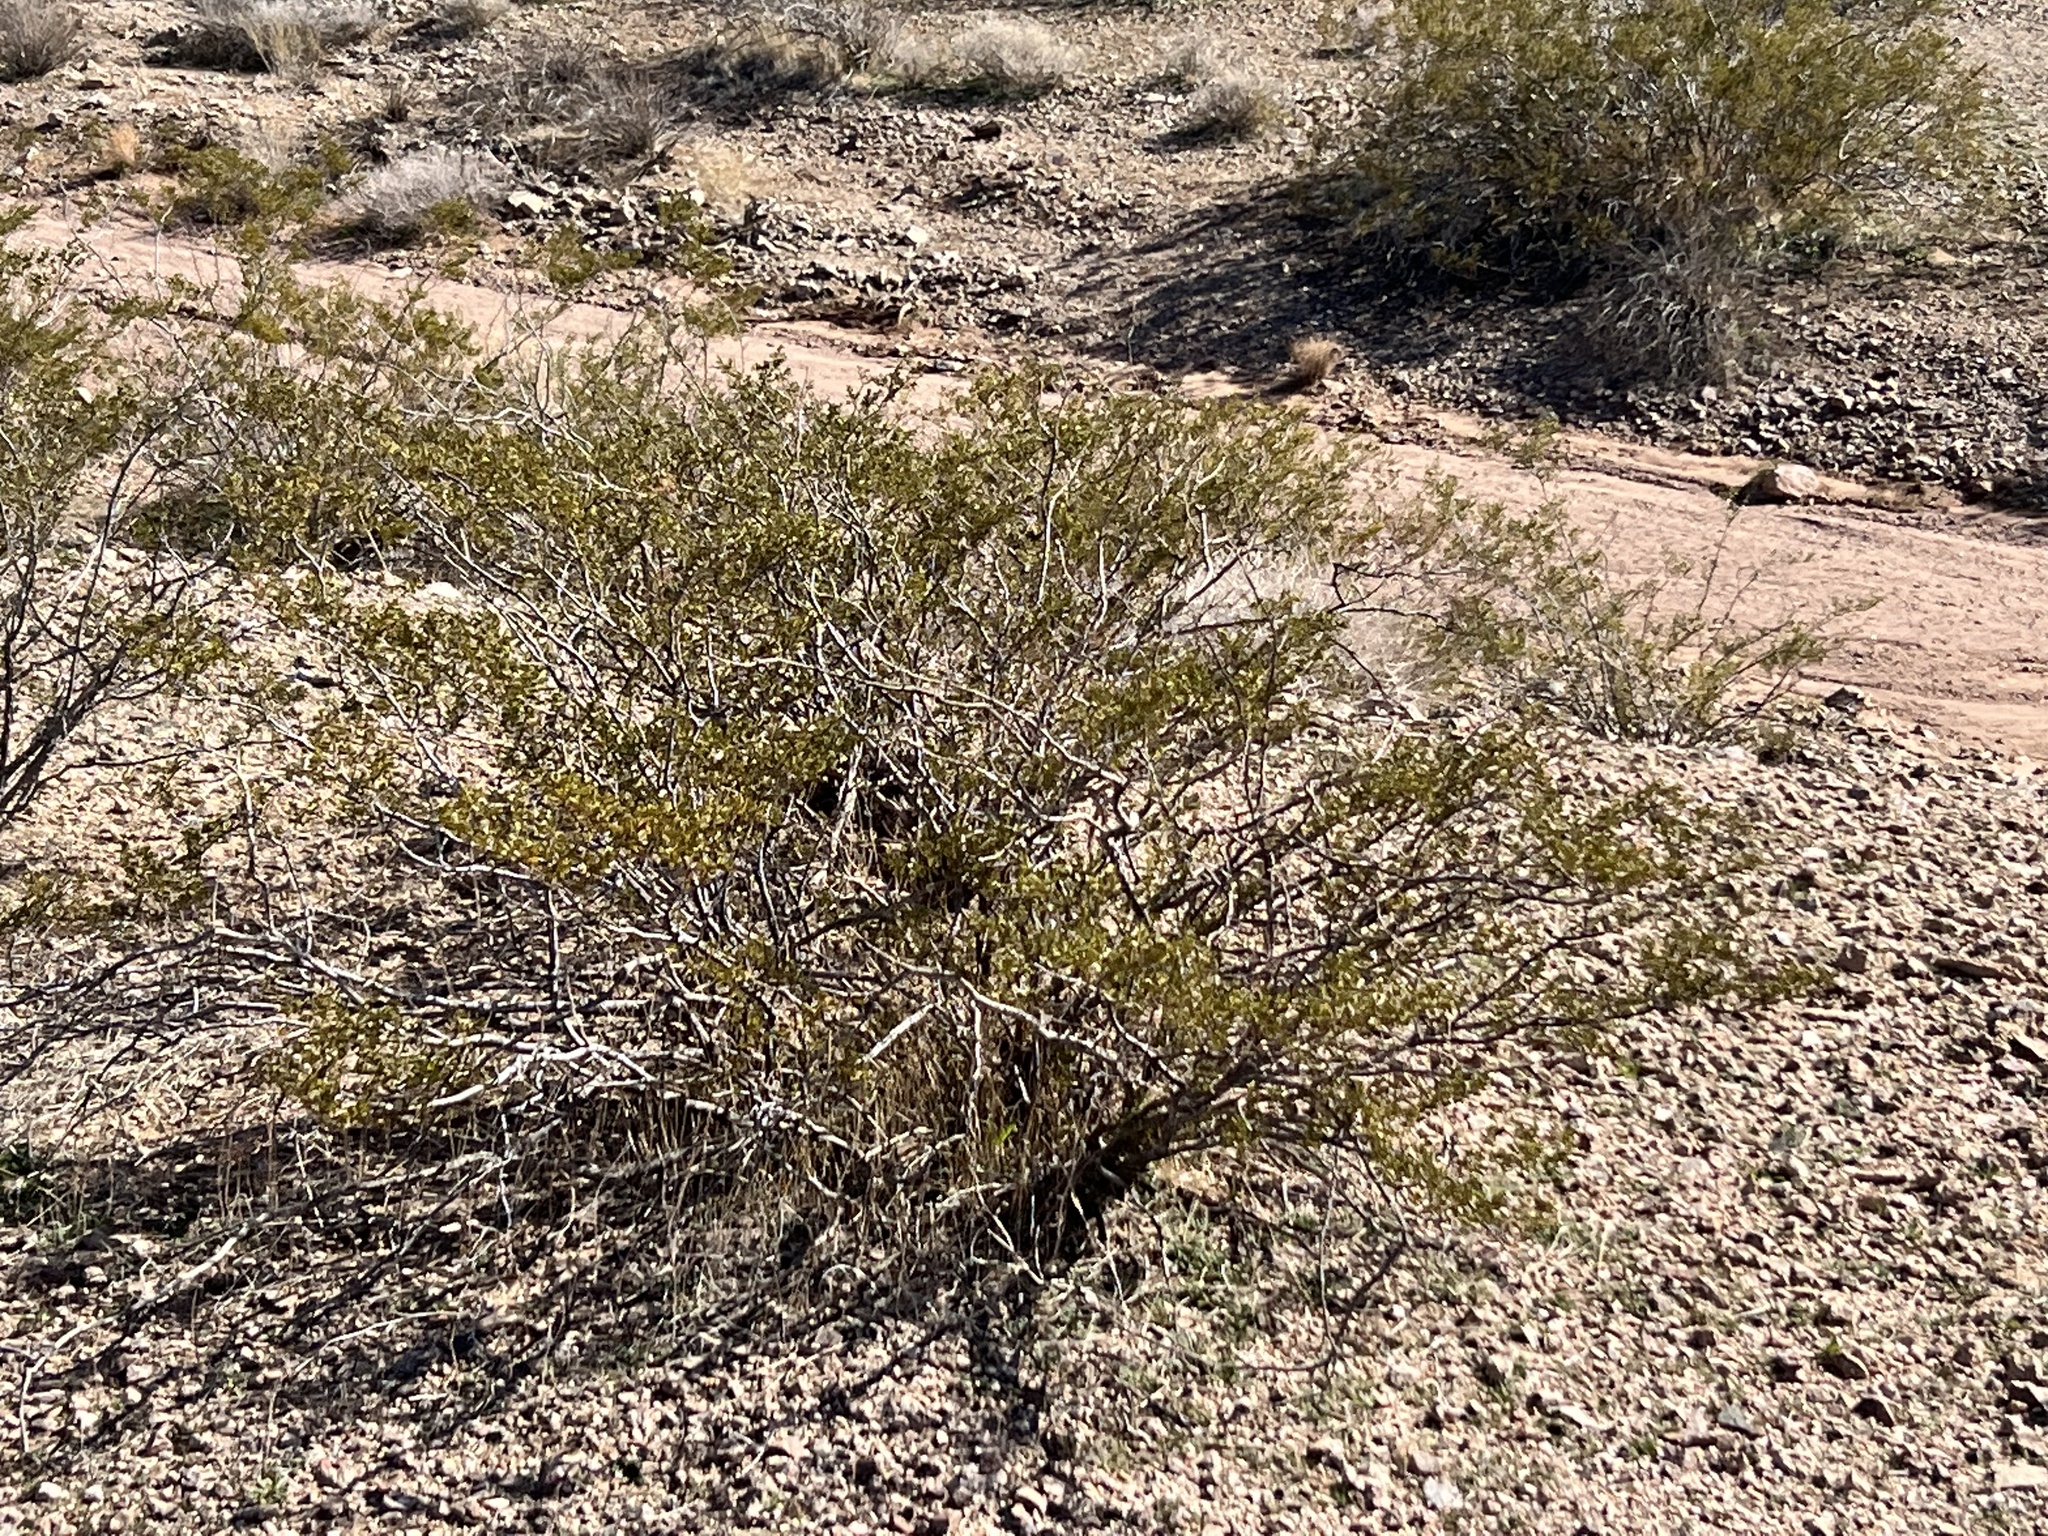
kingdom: Plantae
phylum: Tracheophyta
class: Magnoliopsida
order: Zygophyllales
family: Zygophyllaceae
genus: Larrea
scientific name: Larrea tridentata
